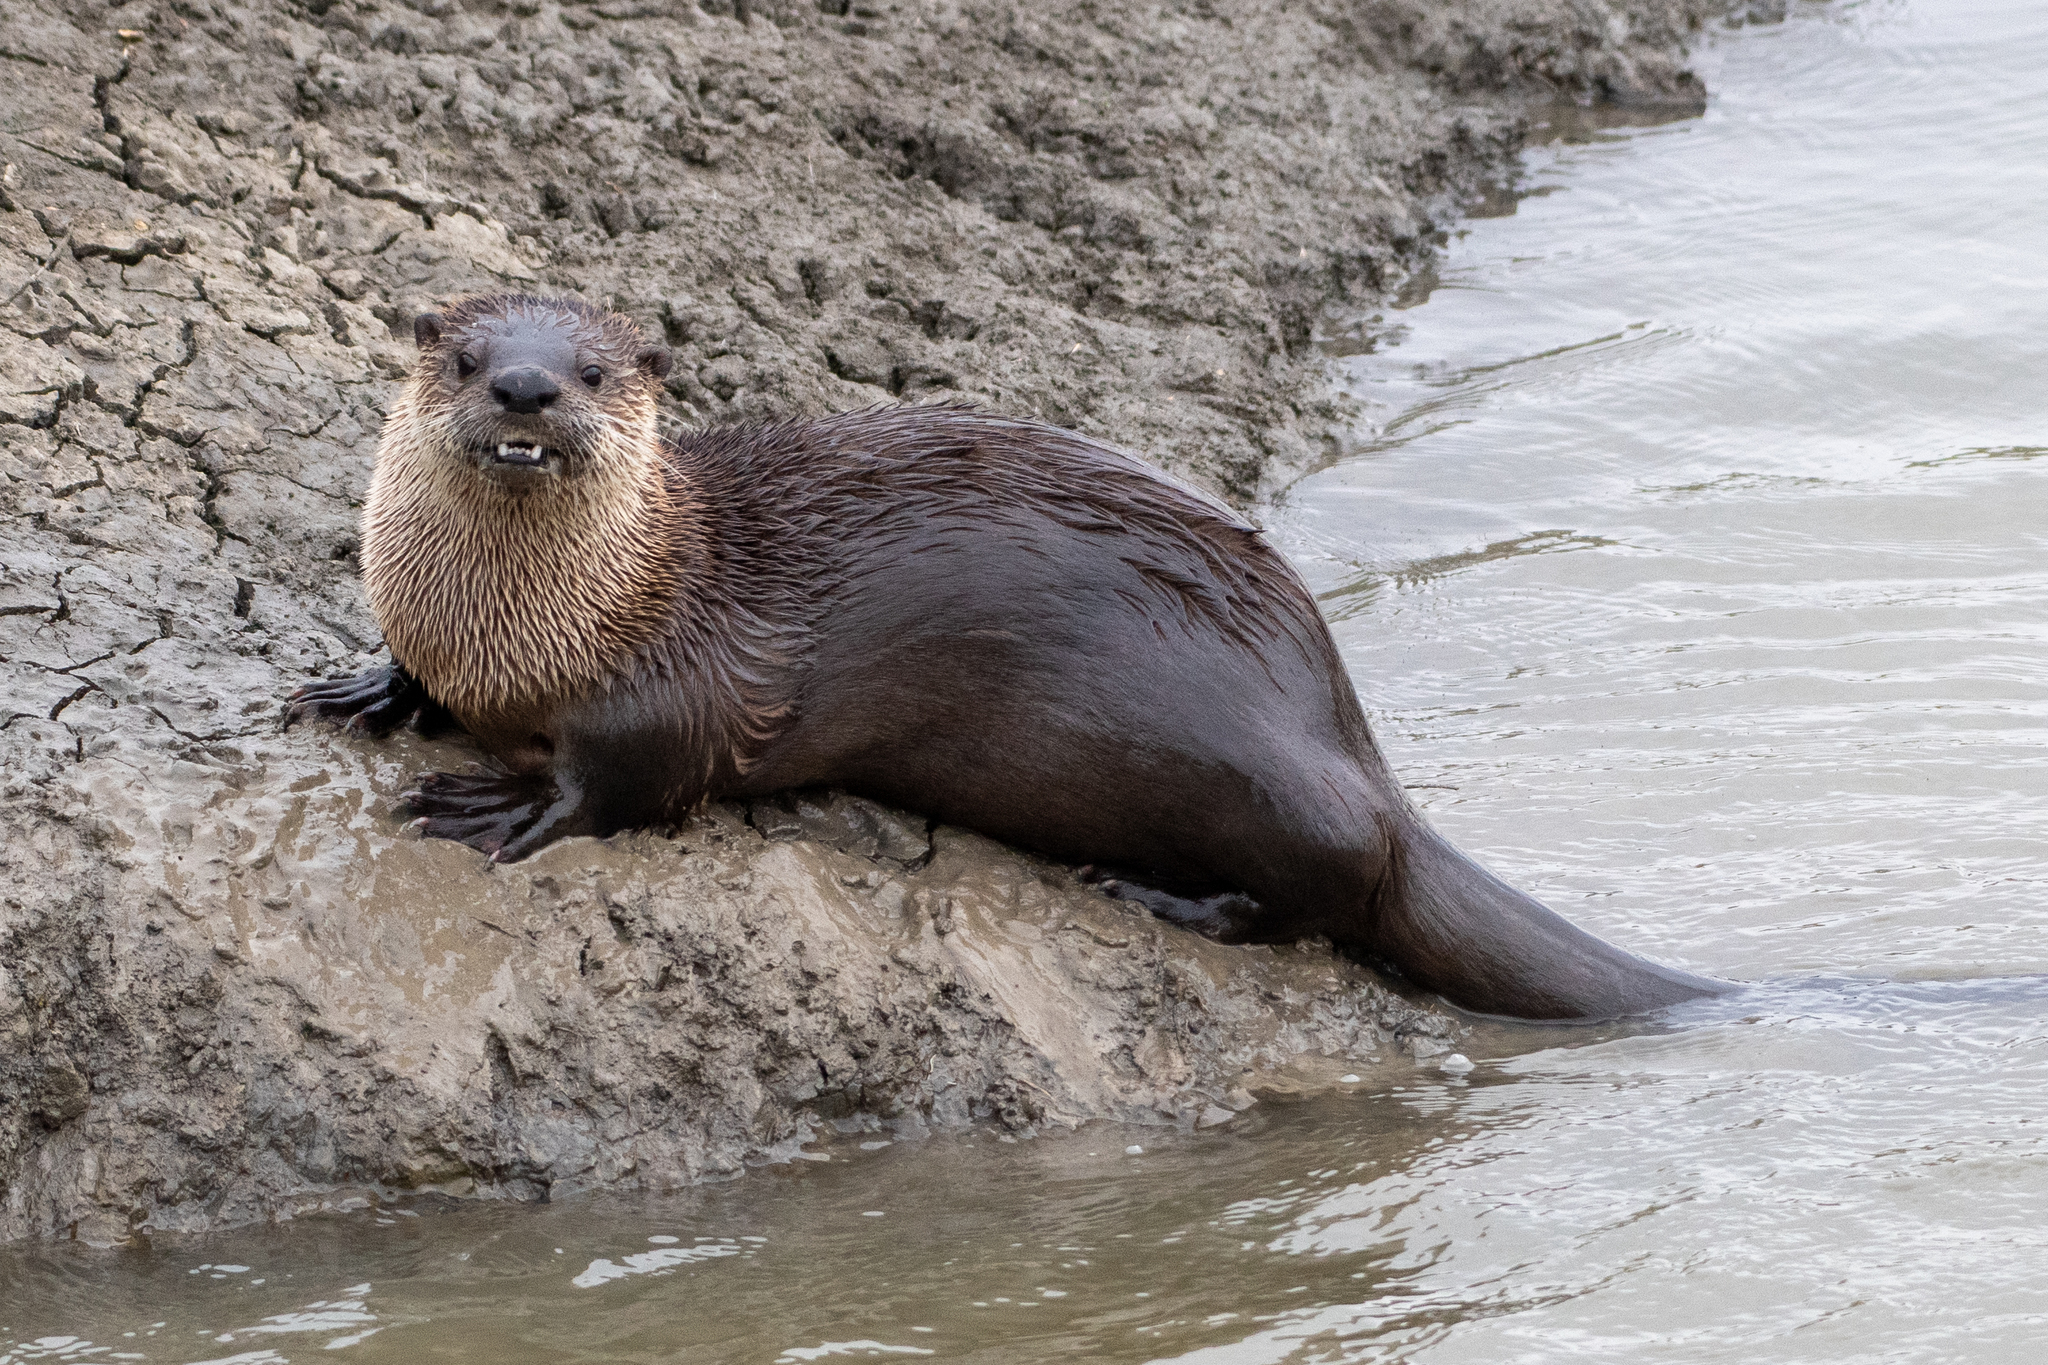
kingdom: Animalia
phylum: Chordata
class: Mammalia
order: Carnivora
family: Mustelidae
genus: Lontra
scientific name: Lontra canadensis
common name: North american river otter
